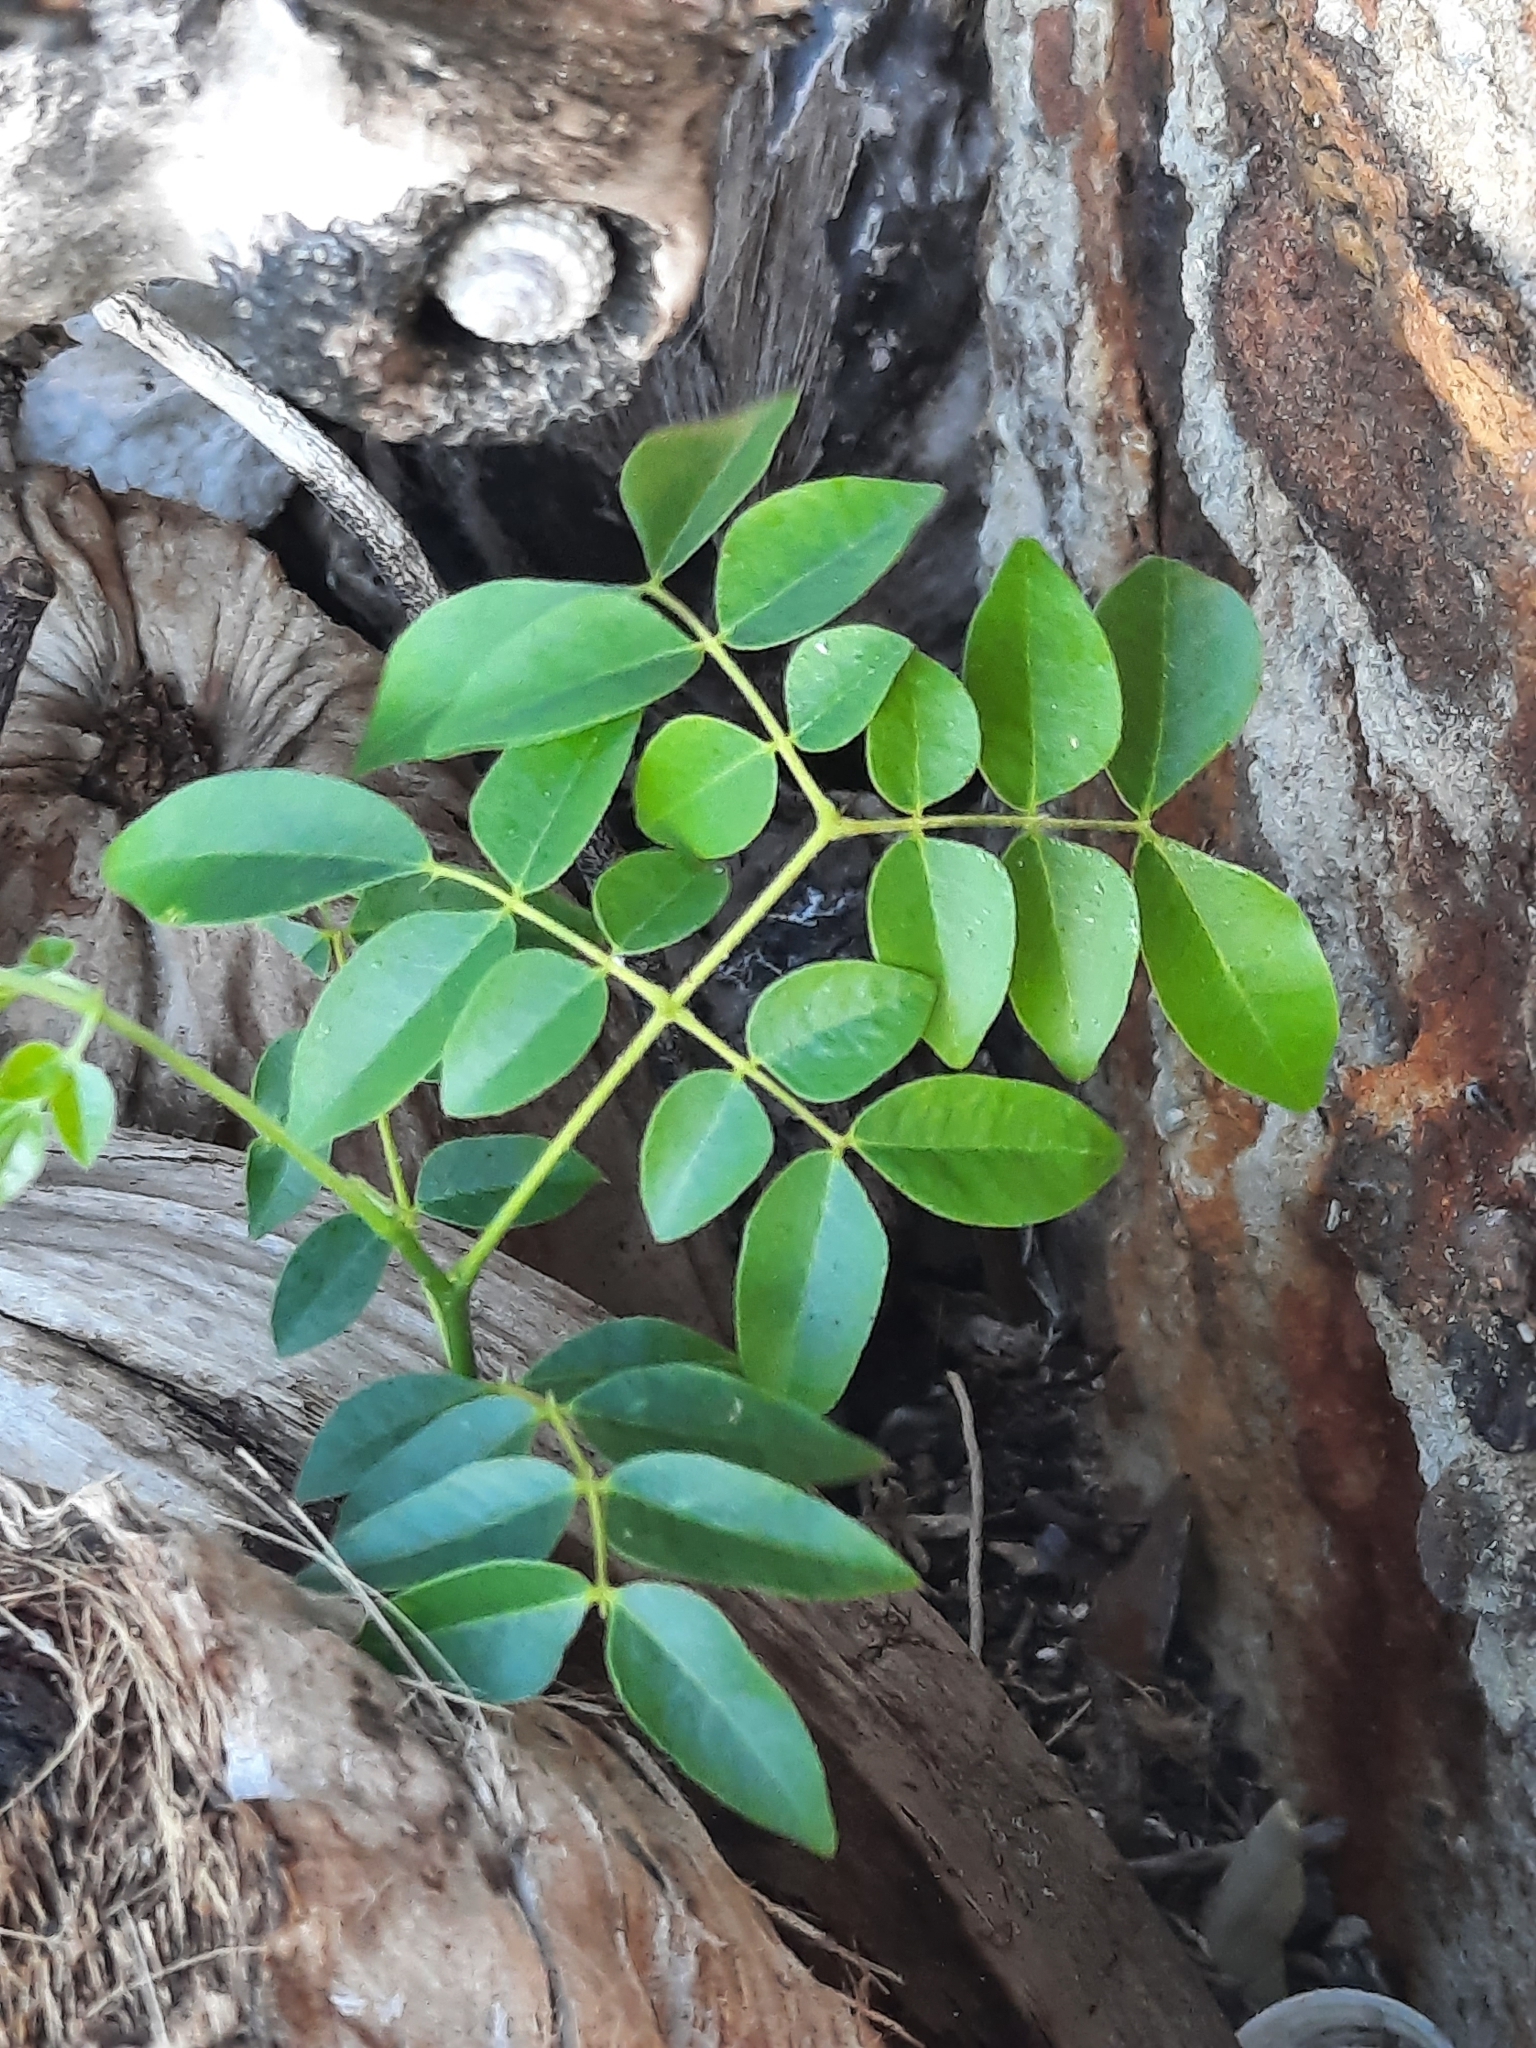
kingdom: Plantae
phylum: Tracheophyta
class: Magnoliopsida
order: Fabales
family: Fabaceae
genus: Guilandina
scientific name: Guilandina bonduc
